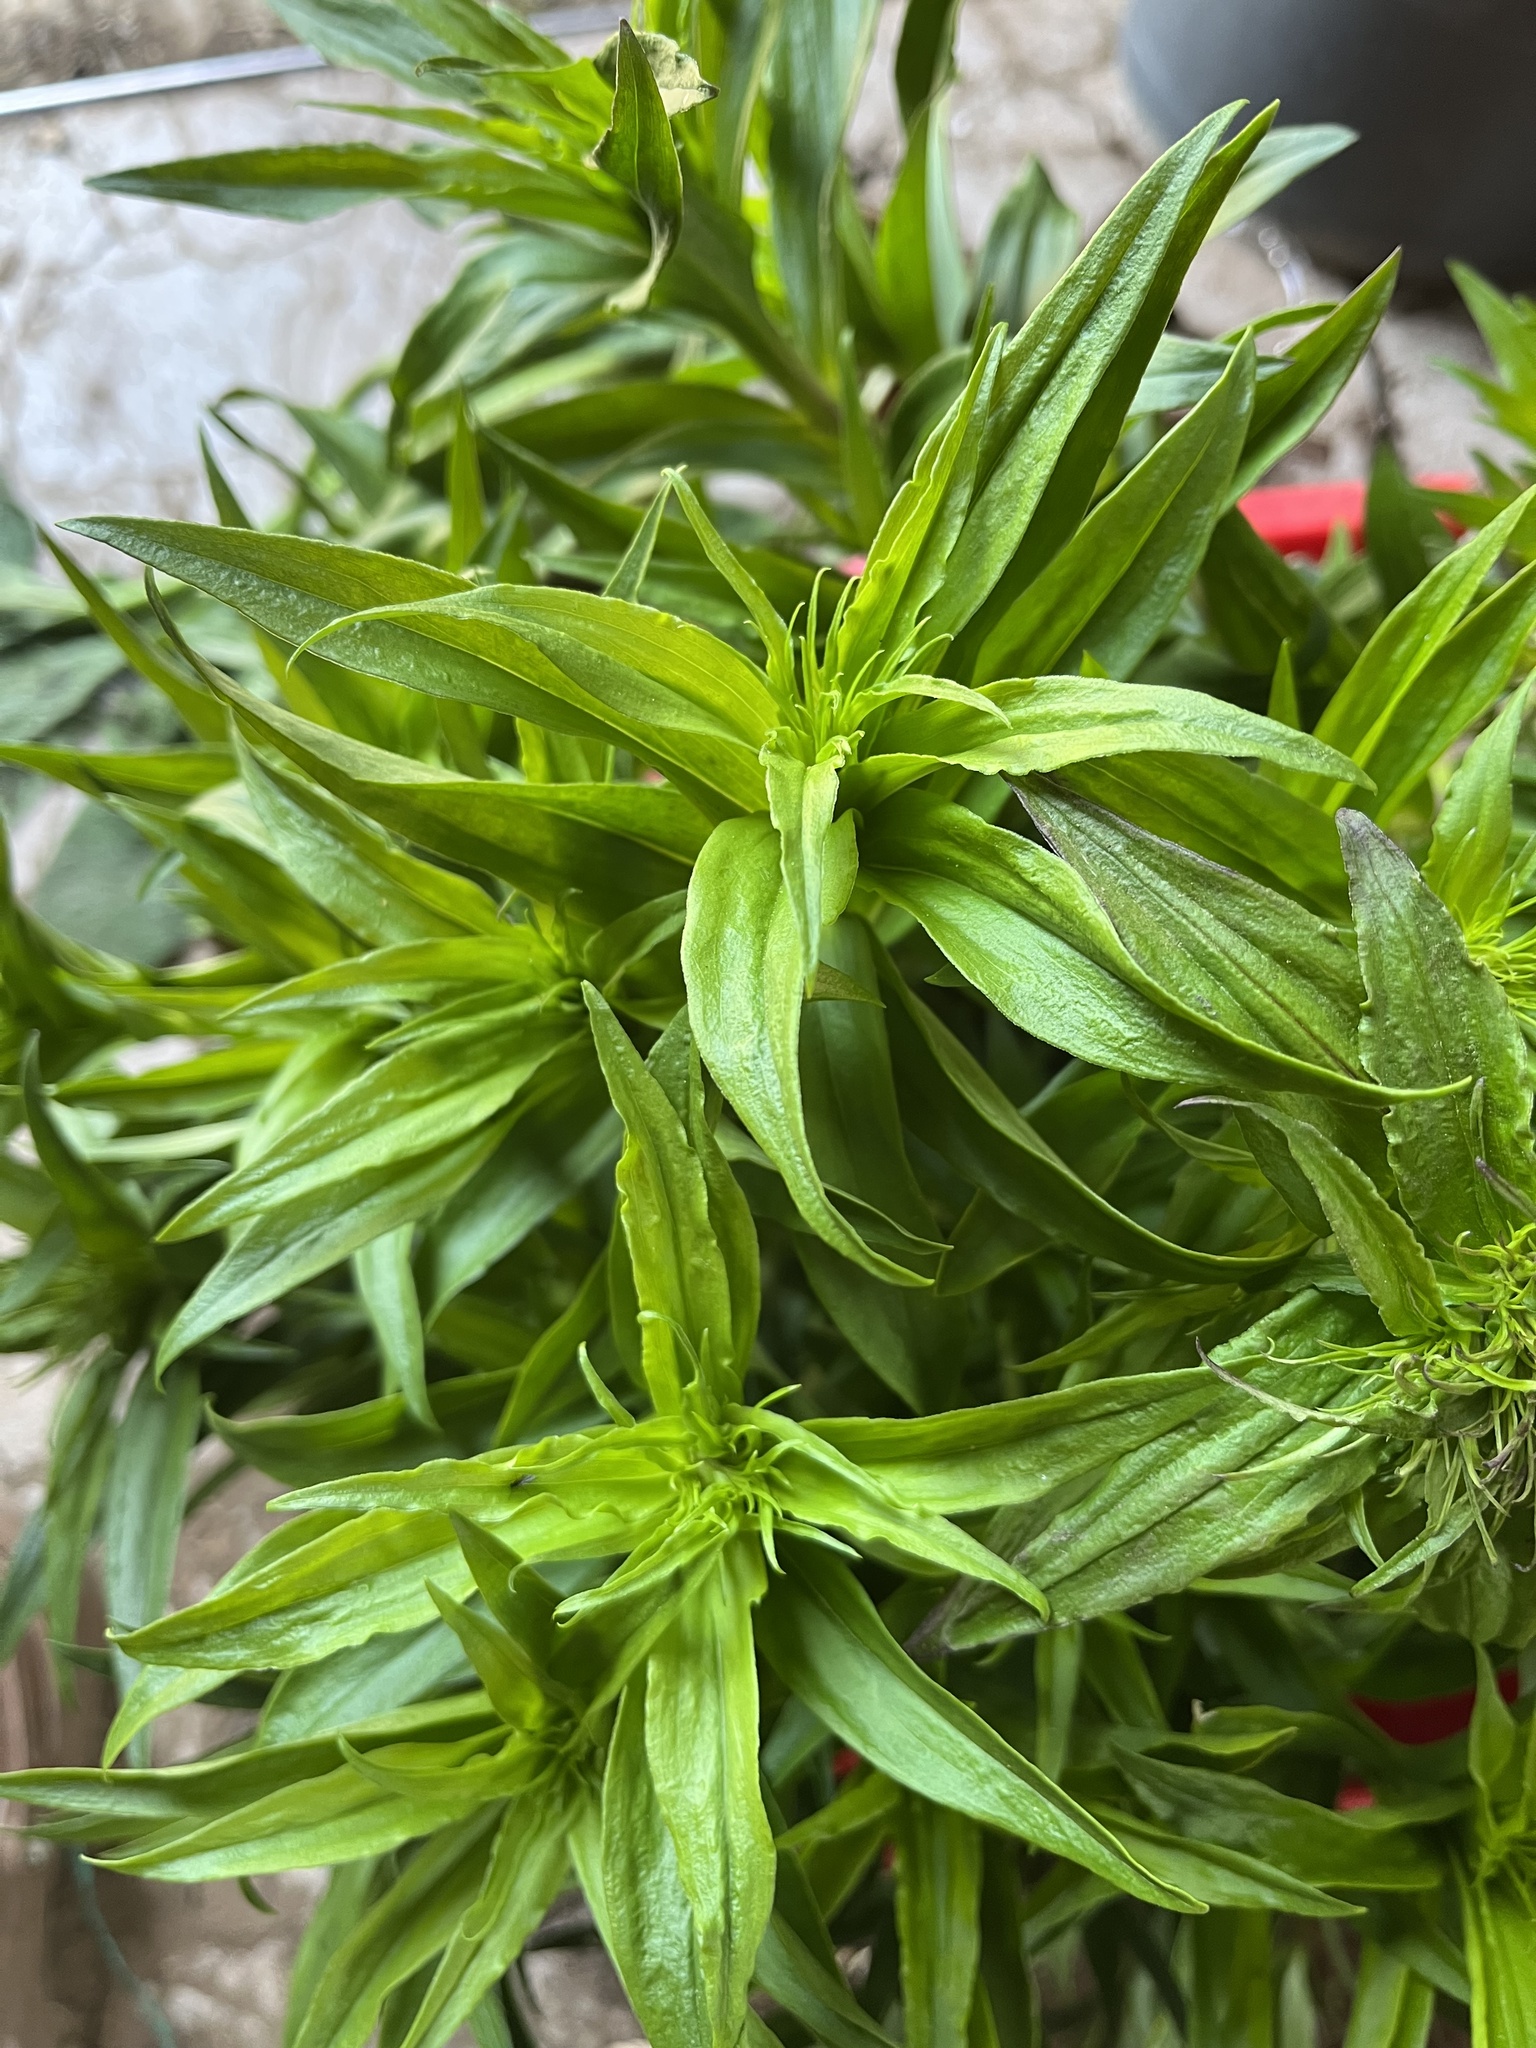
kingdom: Plantae
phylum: Tracheophyta
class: Magnoliopsida
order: Caryophyllales
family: Caryophyllaceae
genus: Dianthus
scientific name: Dianthus barbatus
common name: Sweet-william
